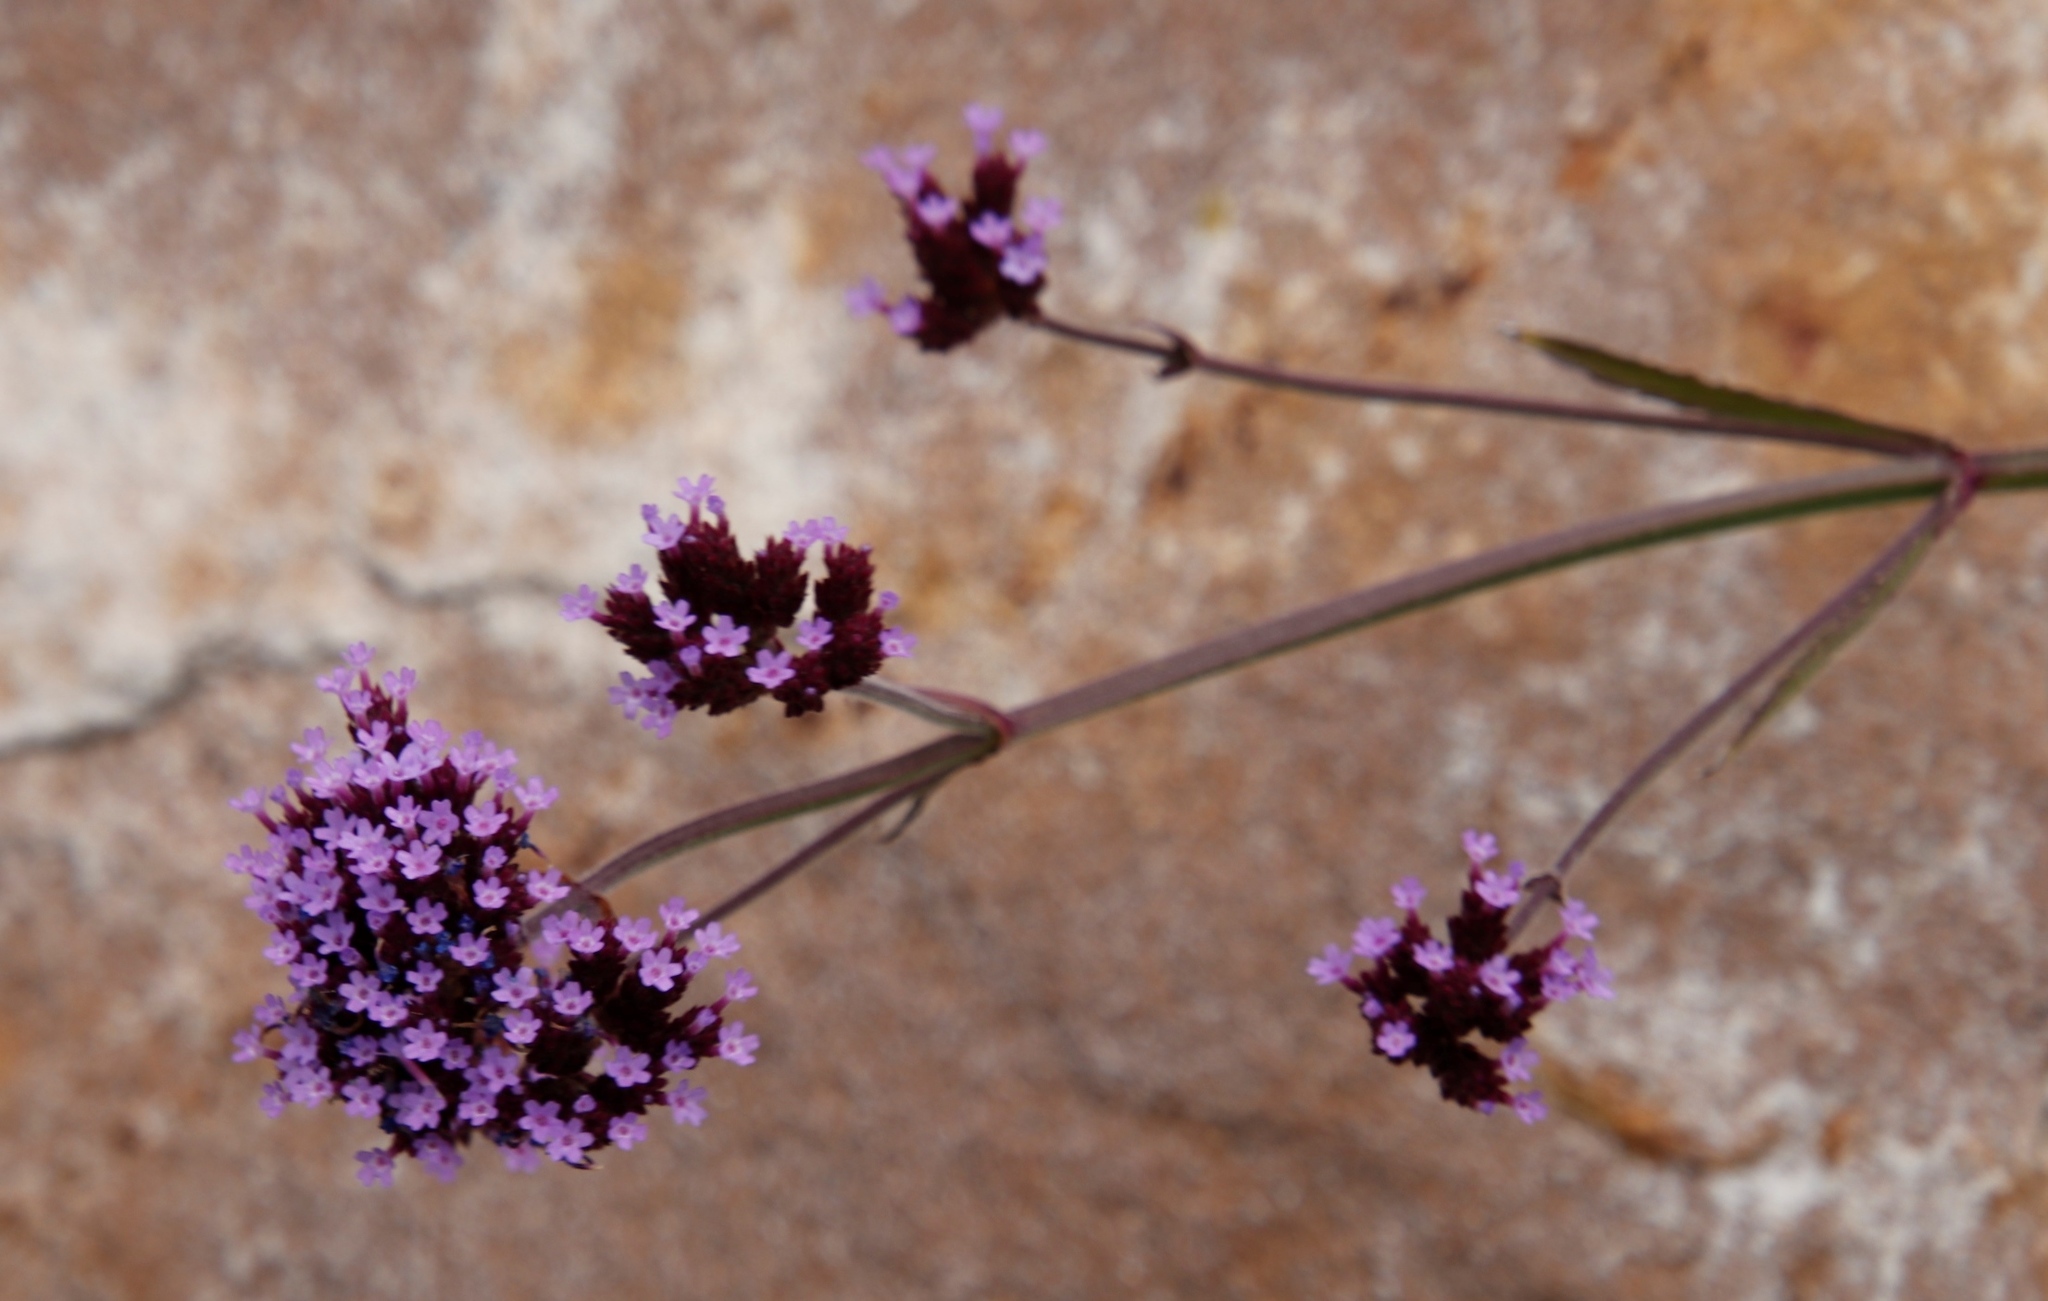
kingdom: Plantae
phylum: Tracheophyta
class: Magnoliopsida
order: Lamiales
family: Verbenaceae
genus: Verbena
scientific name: Verbena bonariensis
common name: Purpletop vervain
